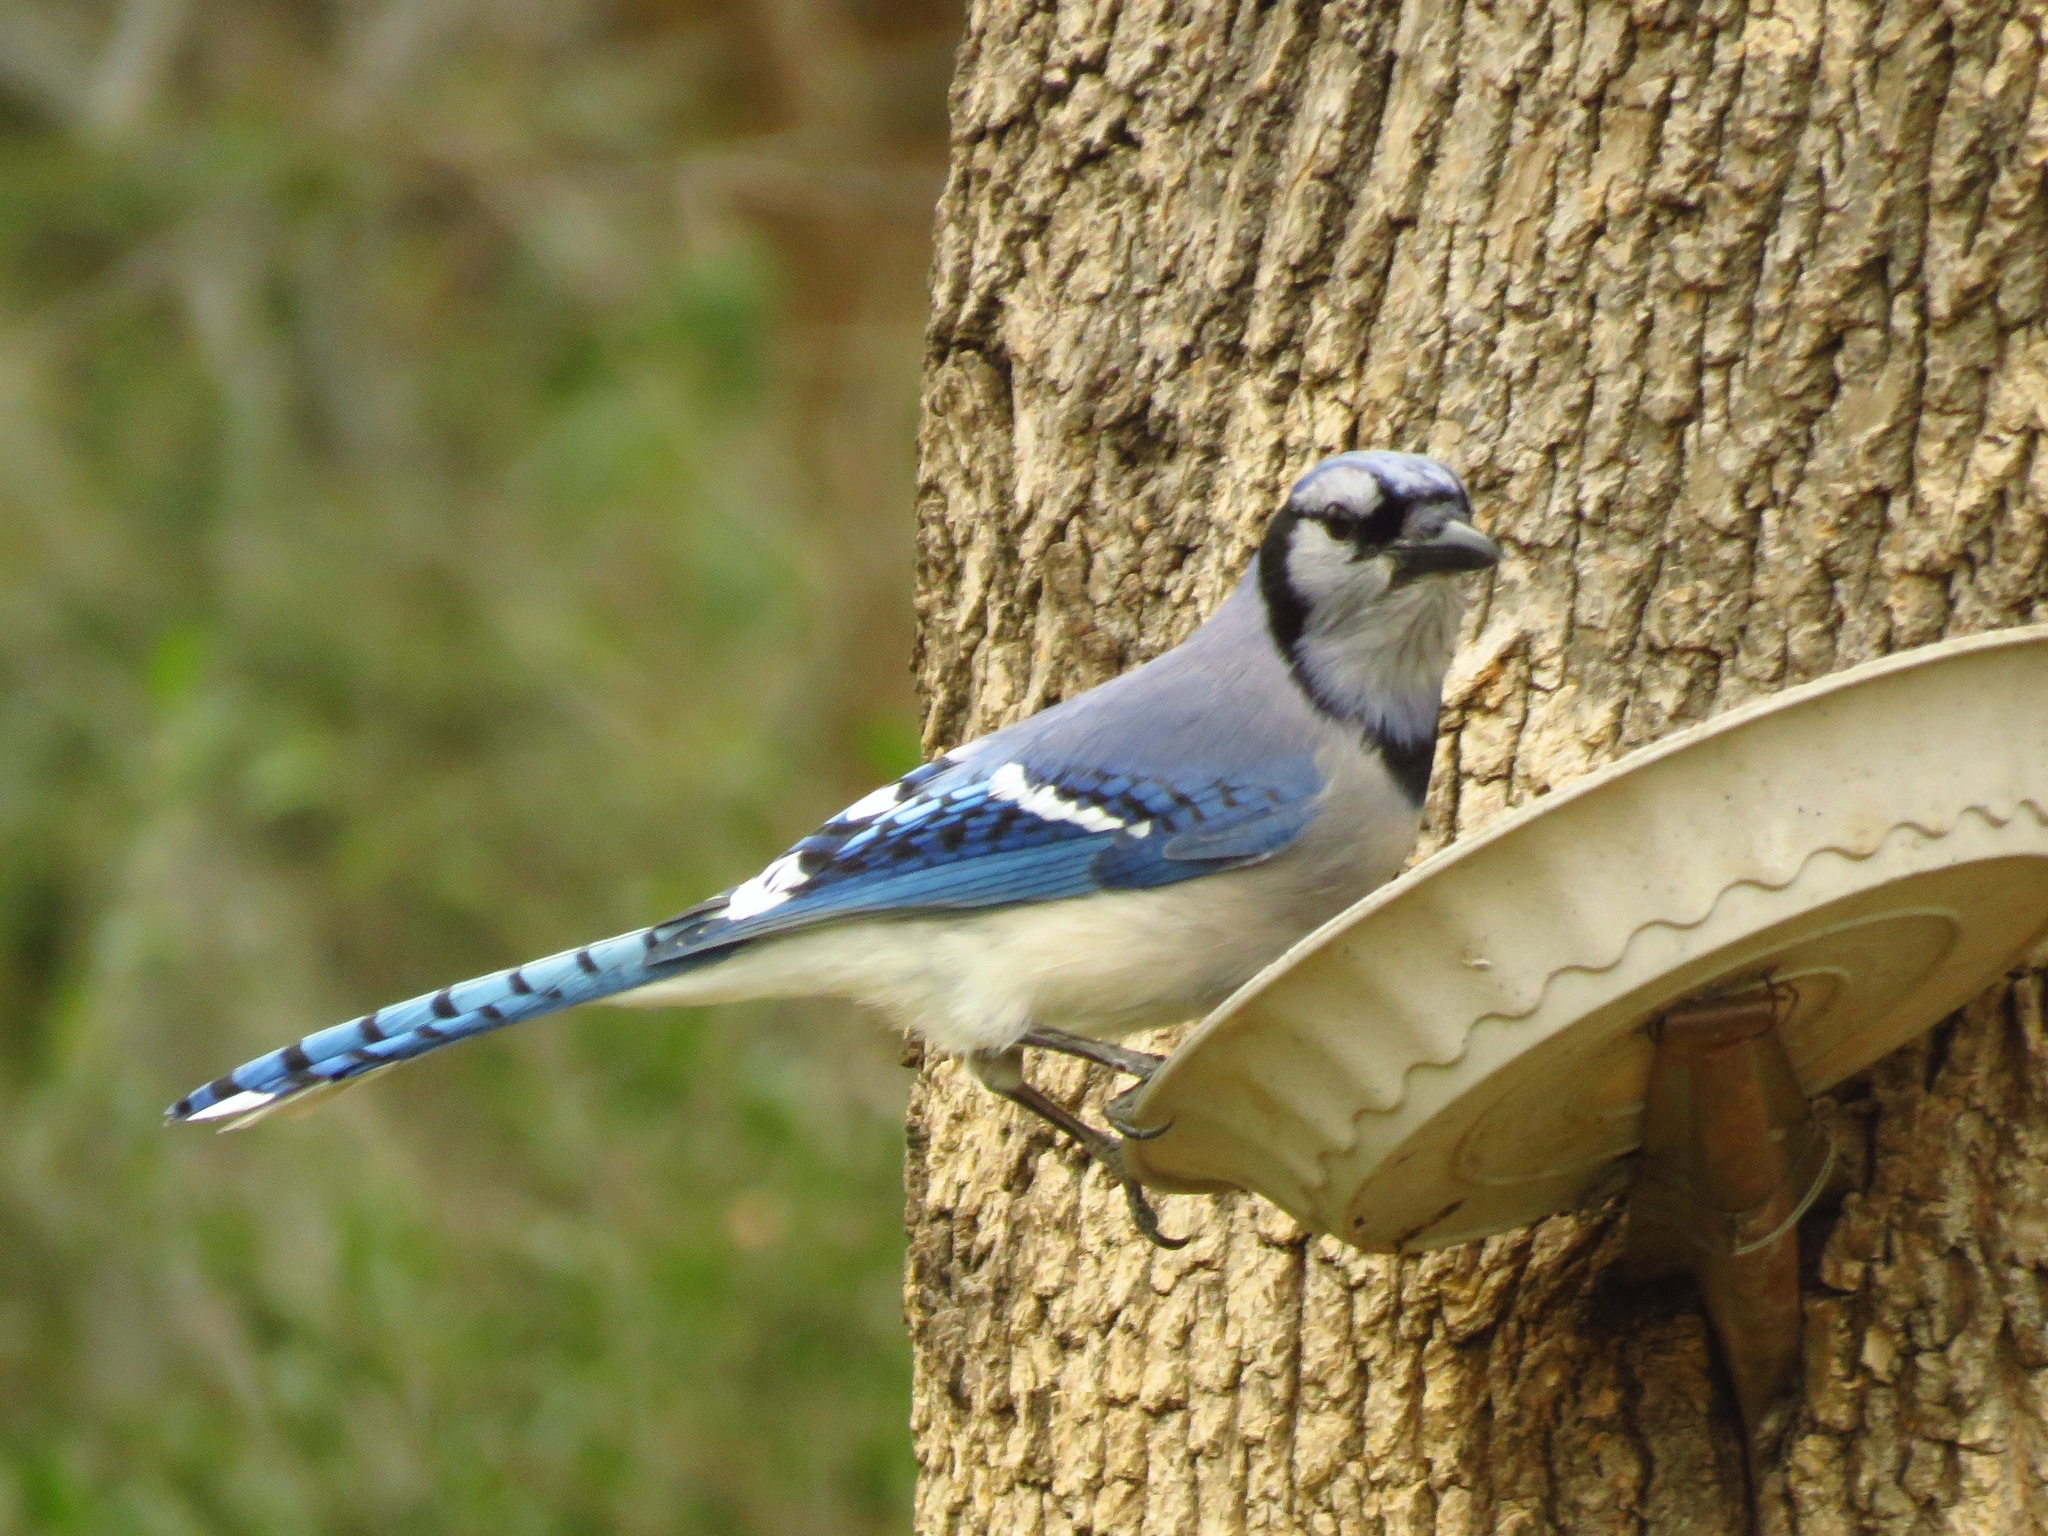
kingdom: Animalia
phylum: Chordata
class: Aves
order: Passeriformes
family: Corvidae
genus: Cyanocitta
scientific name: Cyanocitta cristata
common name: Blue jay
